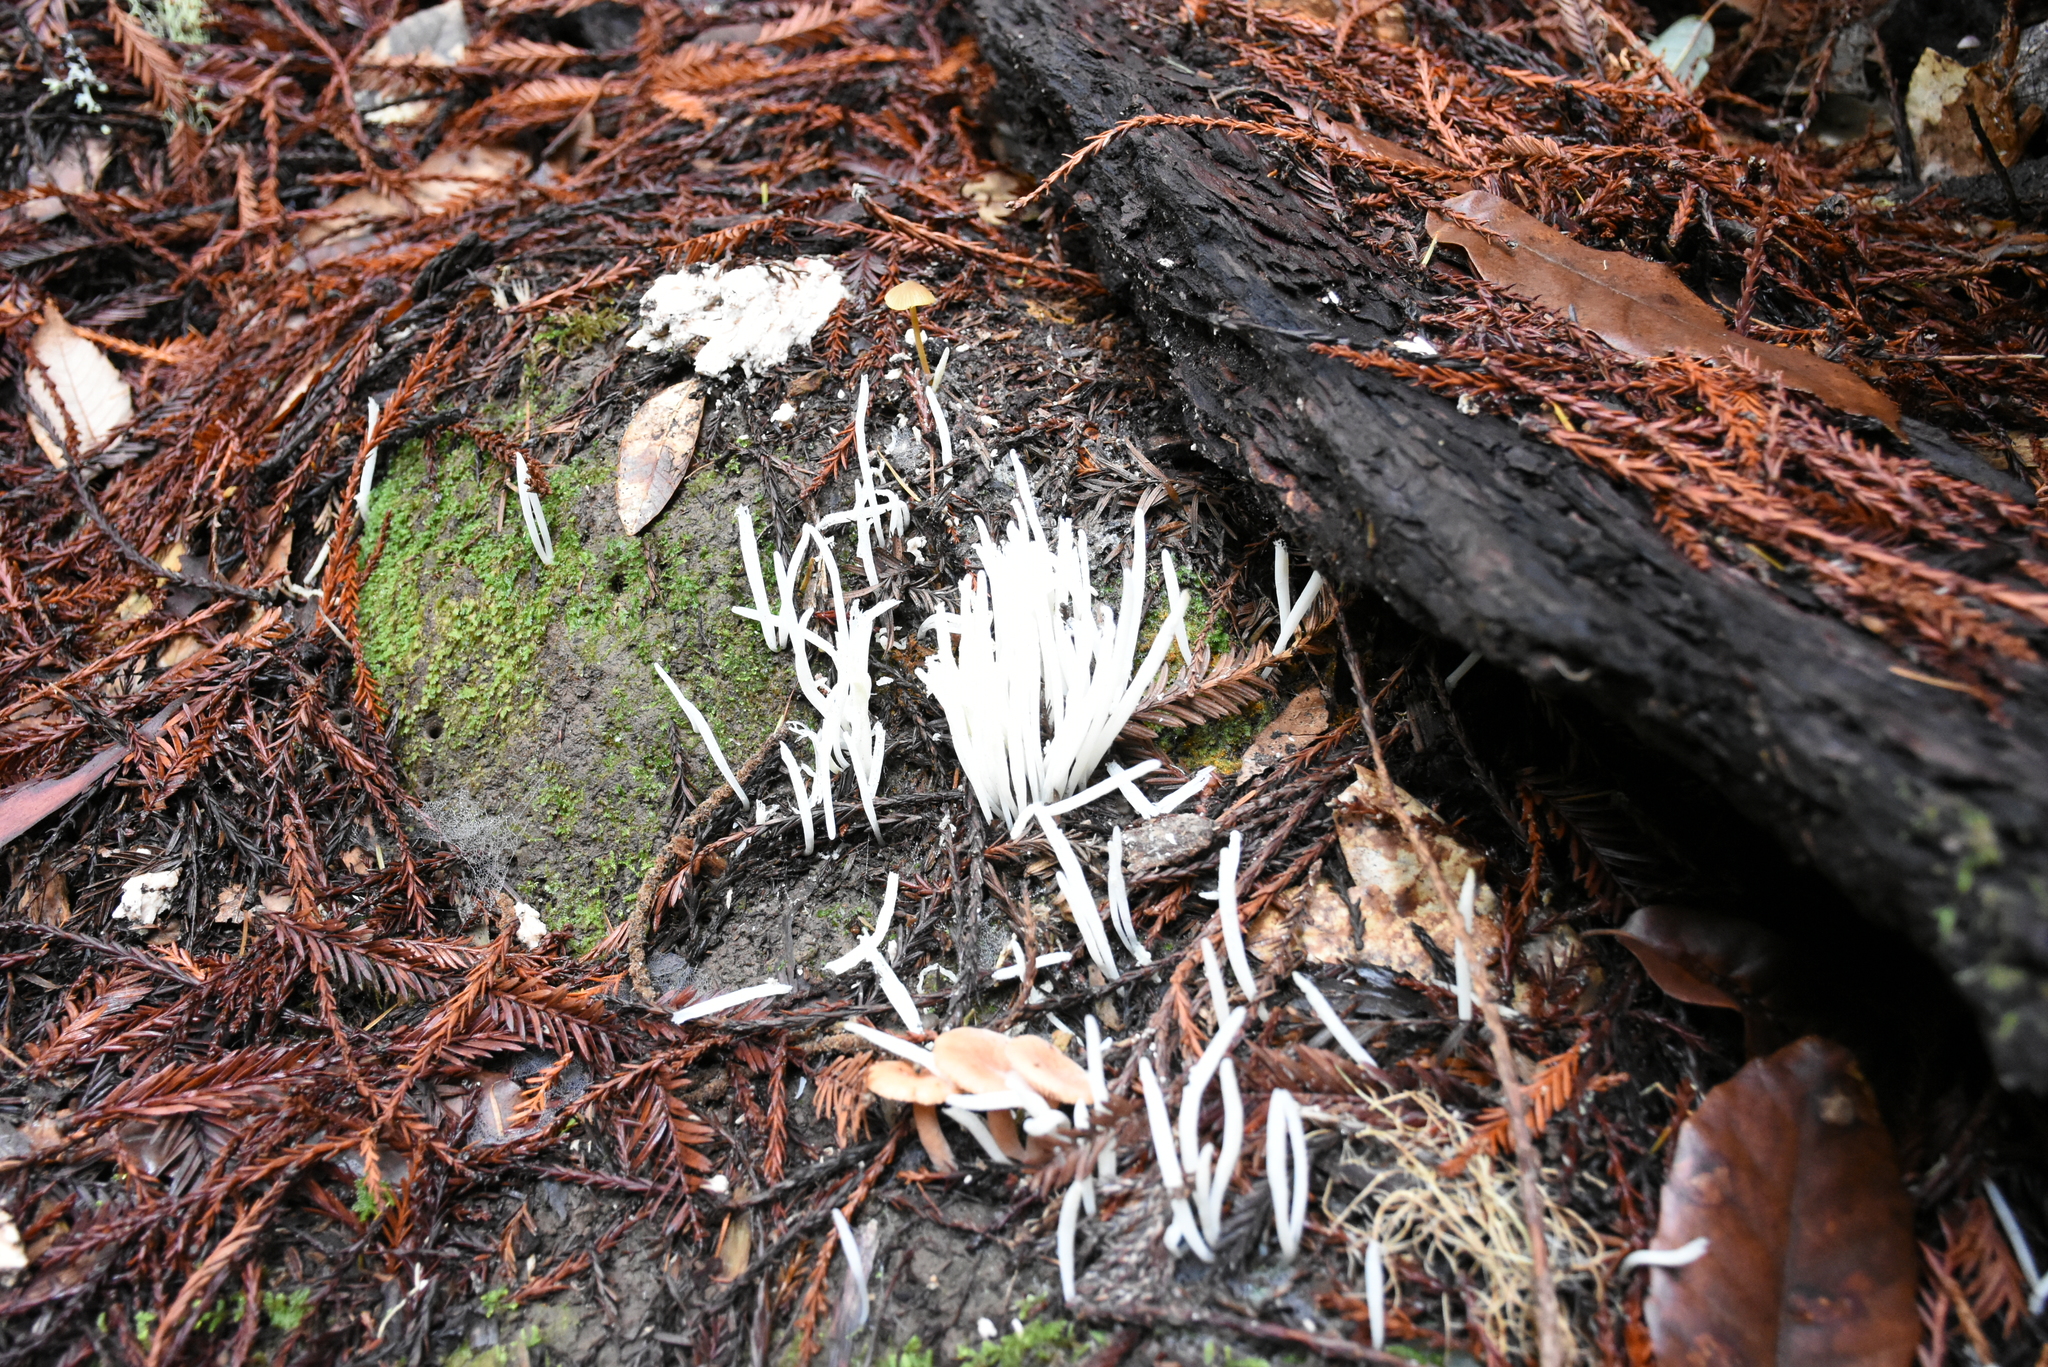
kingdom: Fungi
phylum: Basidiomycota
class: Agaricomycetes
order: Agaricales
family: Clavariaceae
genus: Clavaria
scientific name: Clavaria fragilis
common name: White spindles
